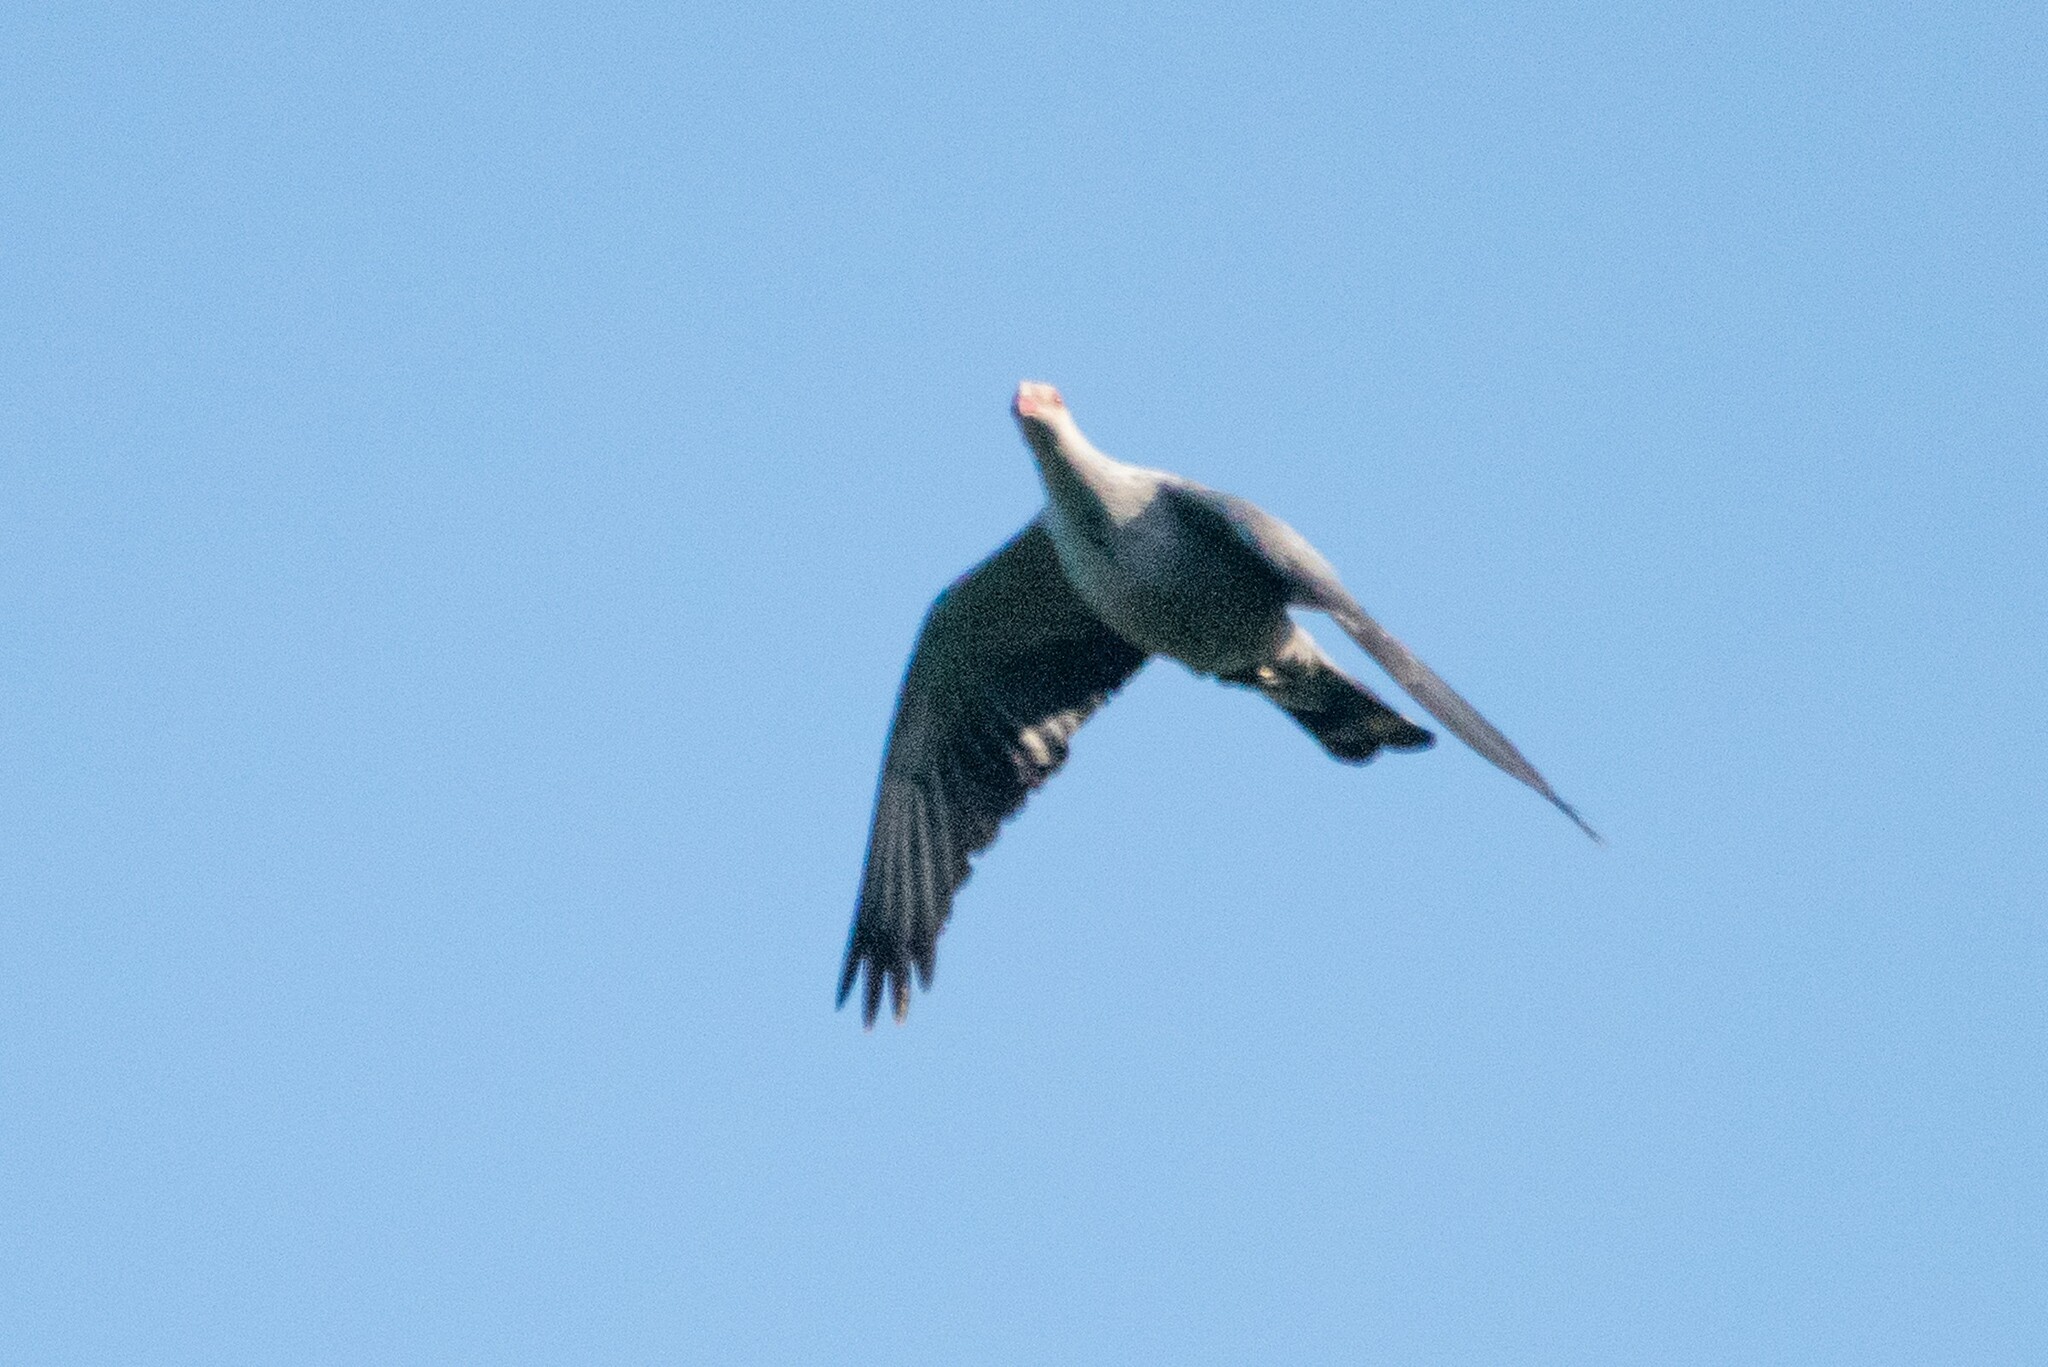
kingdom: Animalia
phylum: Chordata
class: Aves
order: Columbiformes
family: Columbidae
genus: Lopholaimus
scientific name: Lopholaimus antarcticus
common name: Topknot pigeon
